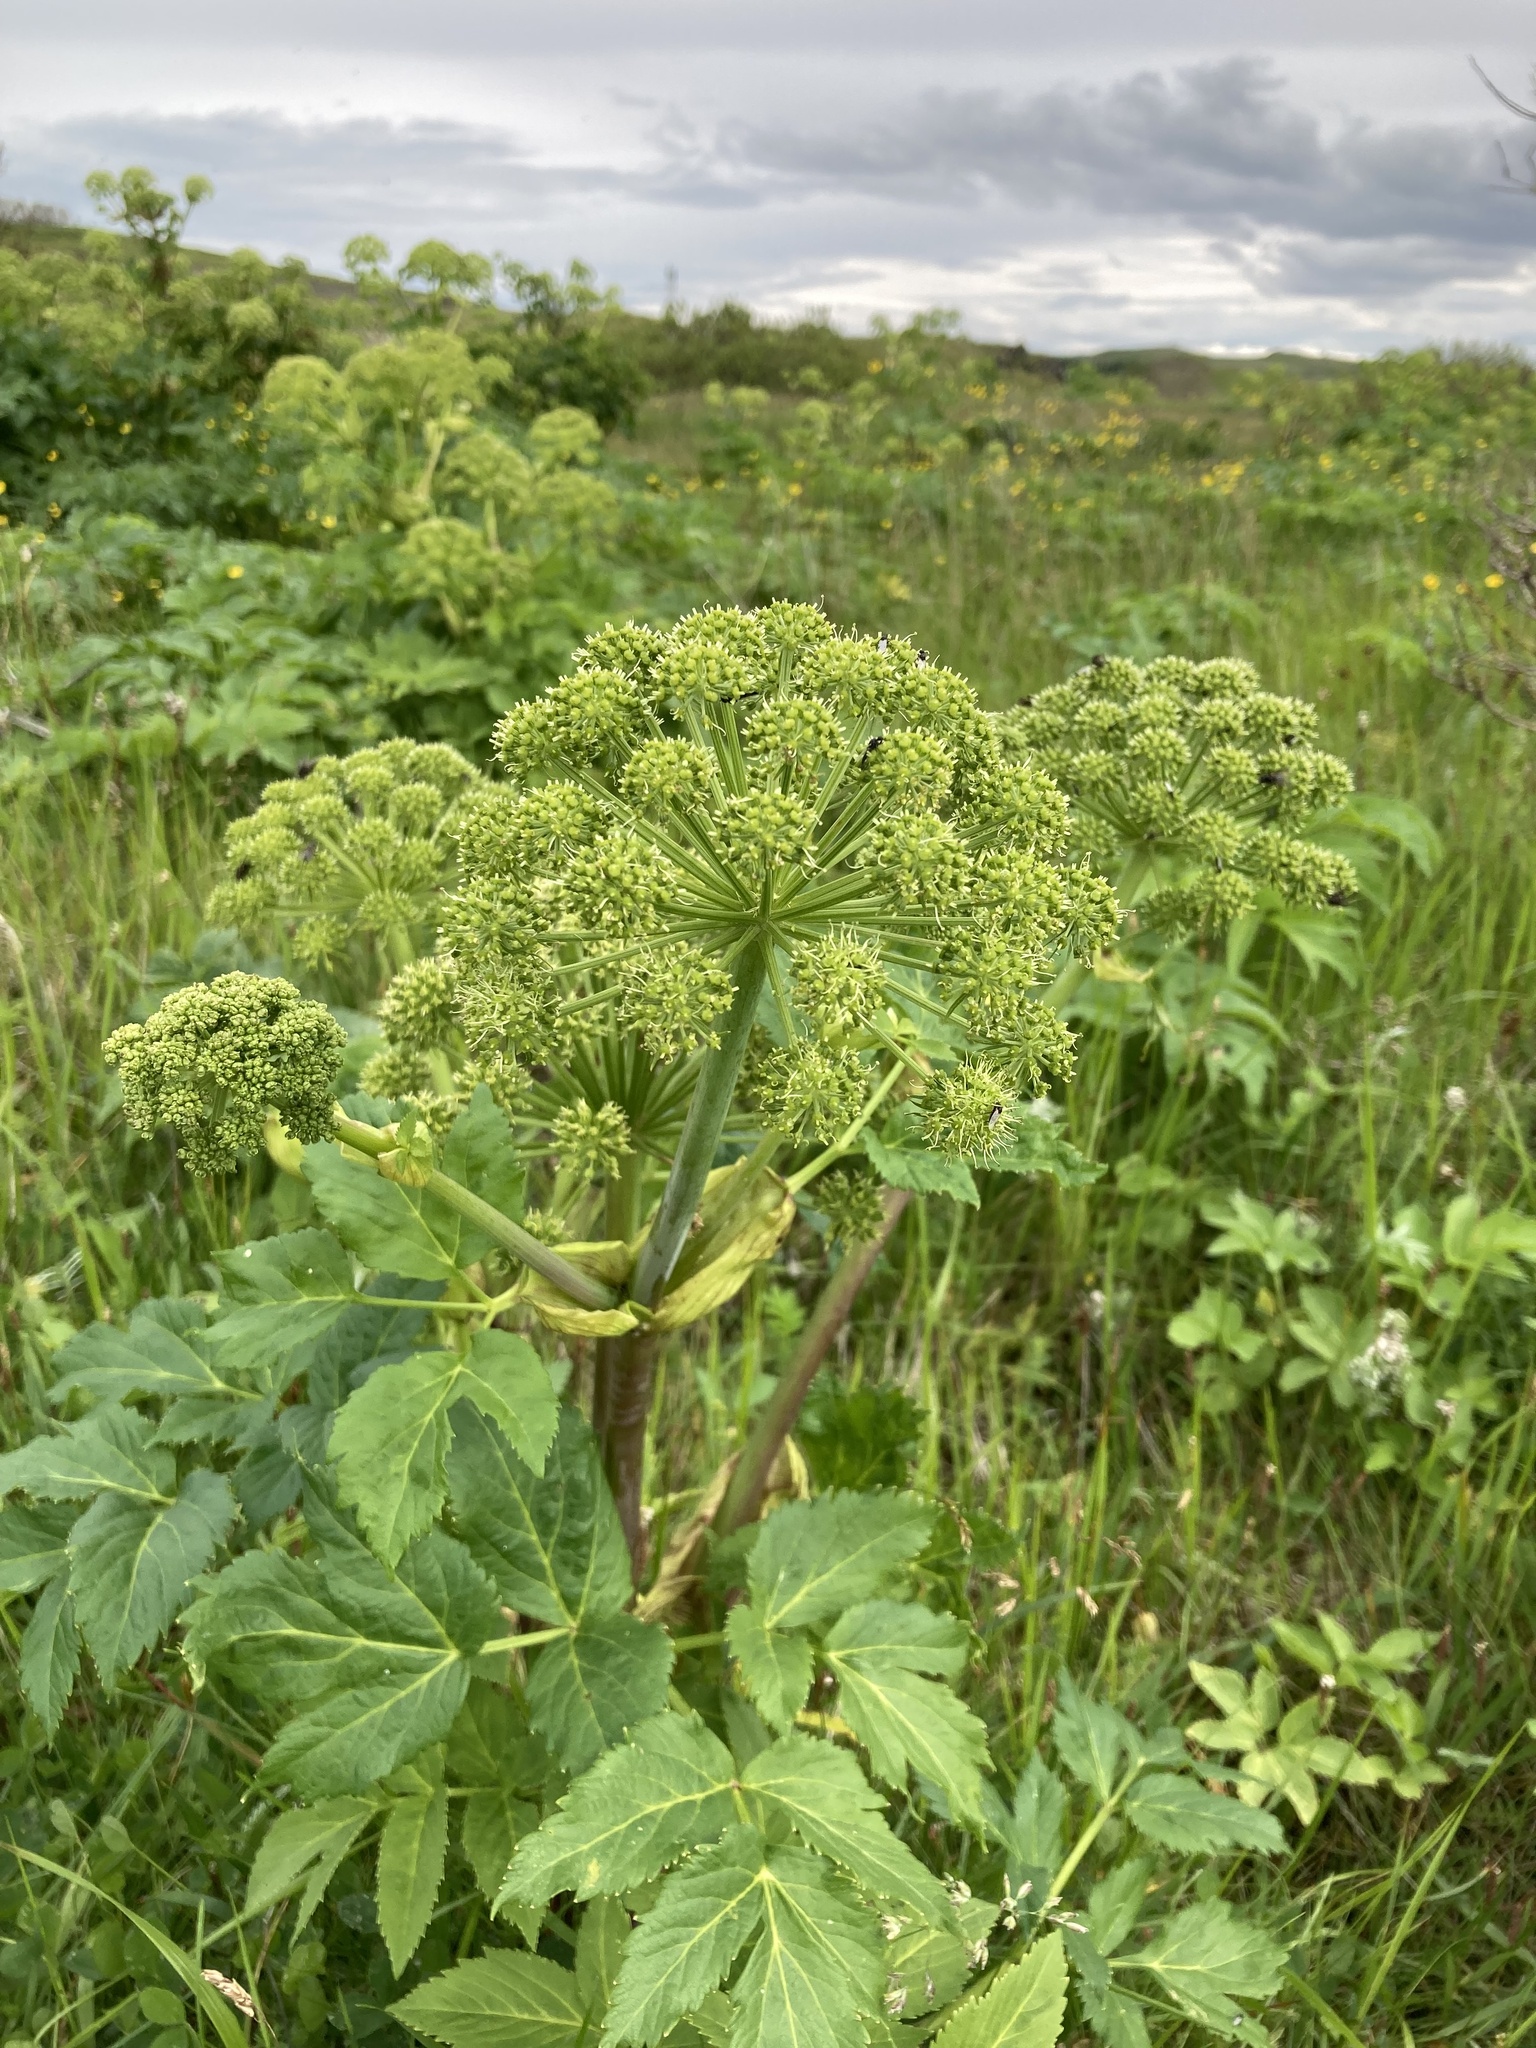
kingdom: Plantae
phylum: Tracheophyta
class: Magnoliopsida
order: Apiales
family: Apiaceae
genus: Angelica
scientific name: Angelica archangelica
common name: Garden angelica
